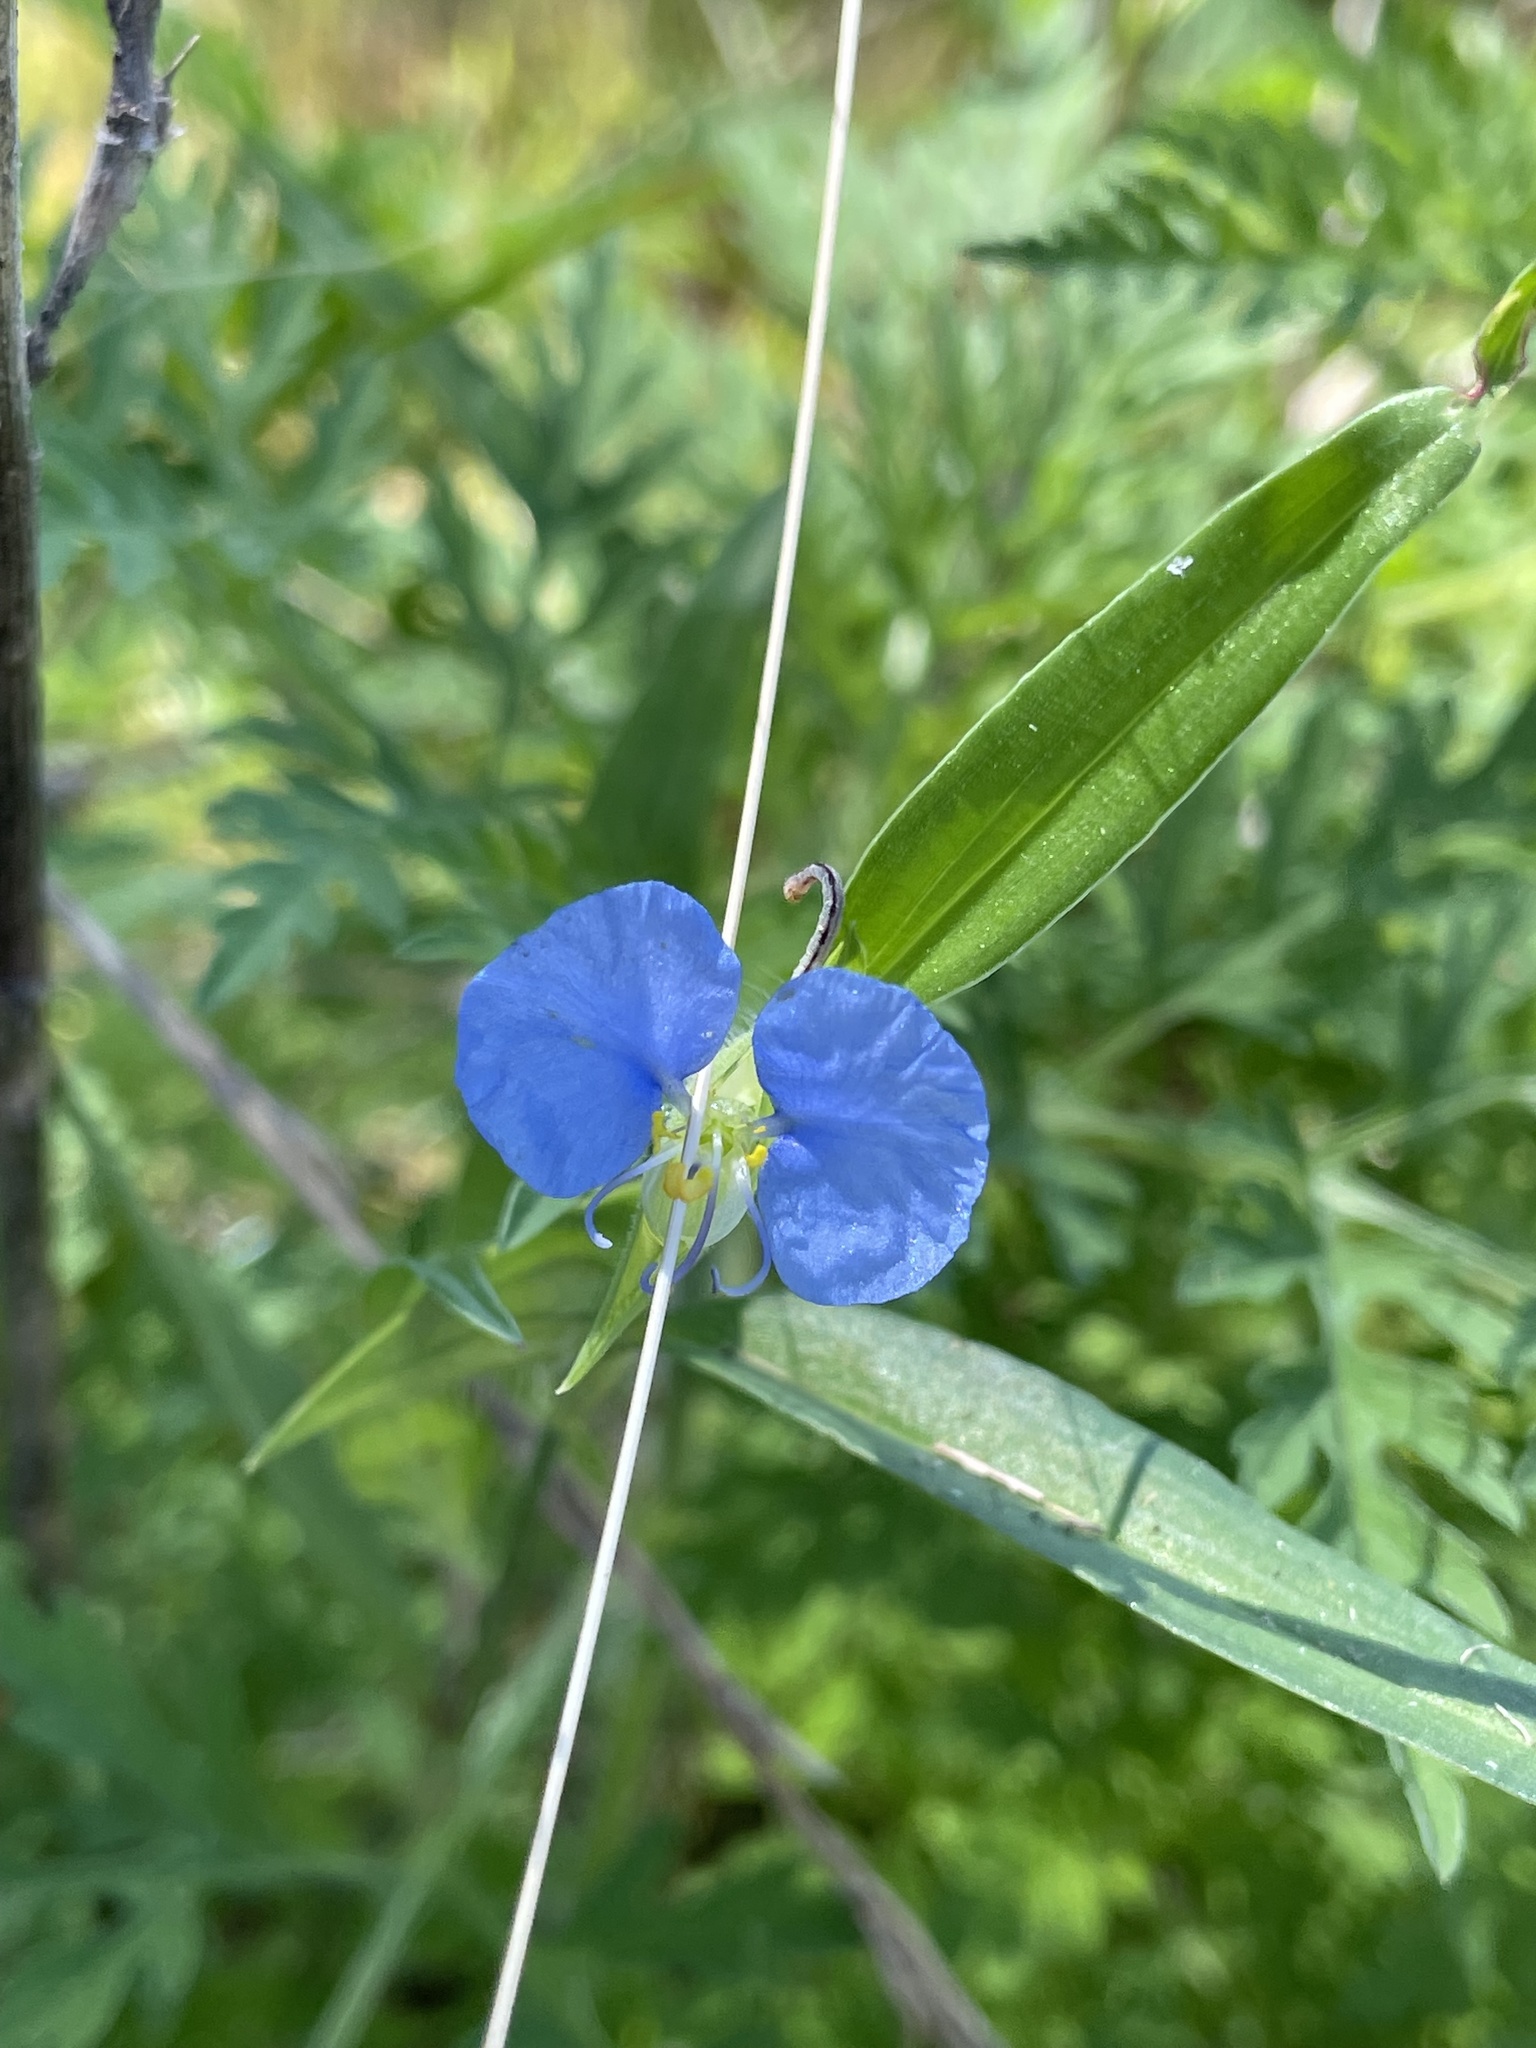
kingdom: Plantae
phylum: Tracheophyta
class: Liliopsida
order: Commelinales
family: Commelinaceae
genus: Commelina
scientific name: Commelina erecta
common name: Blousel blommetjie
